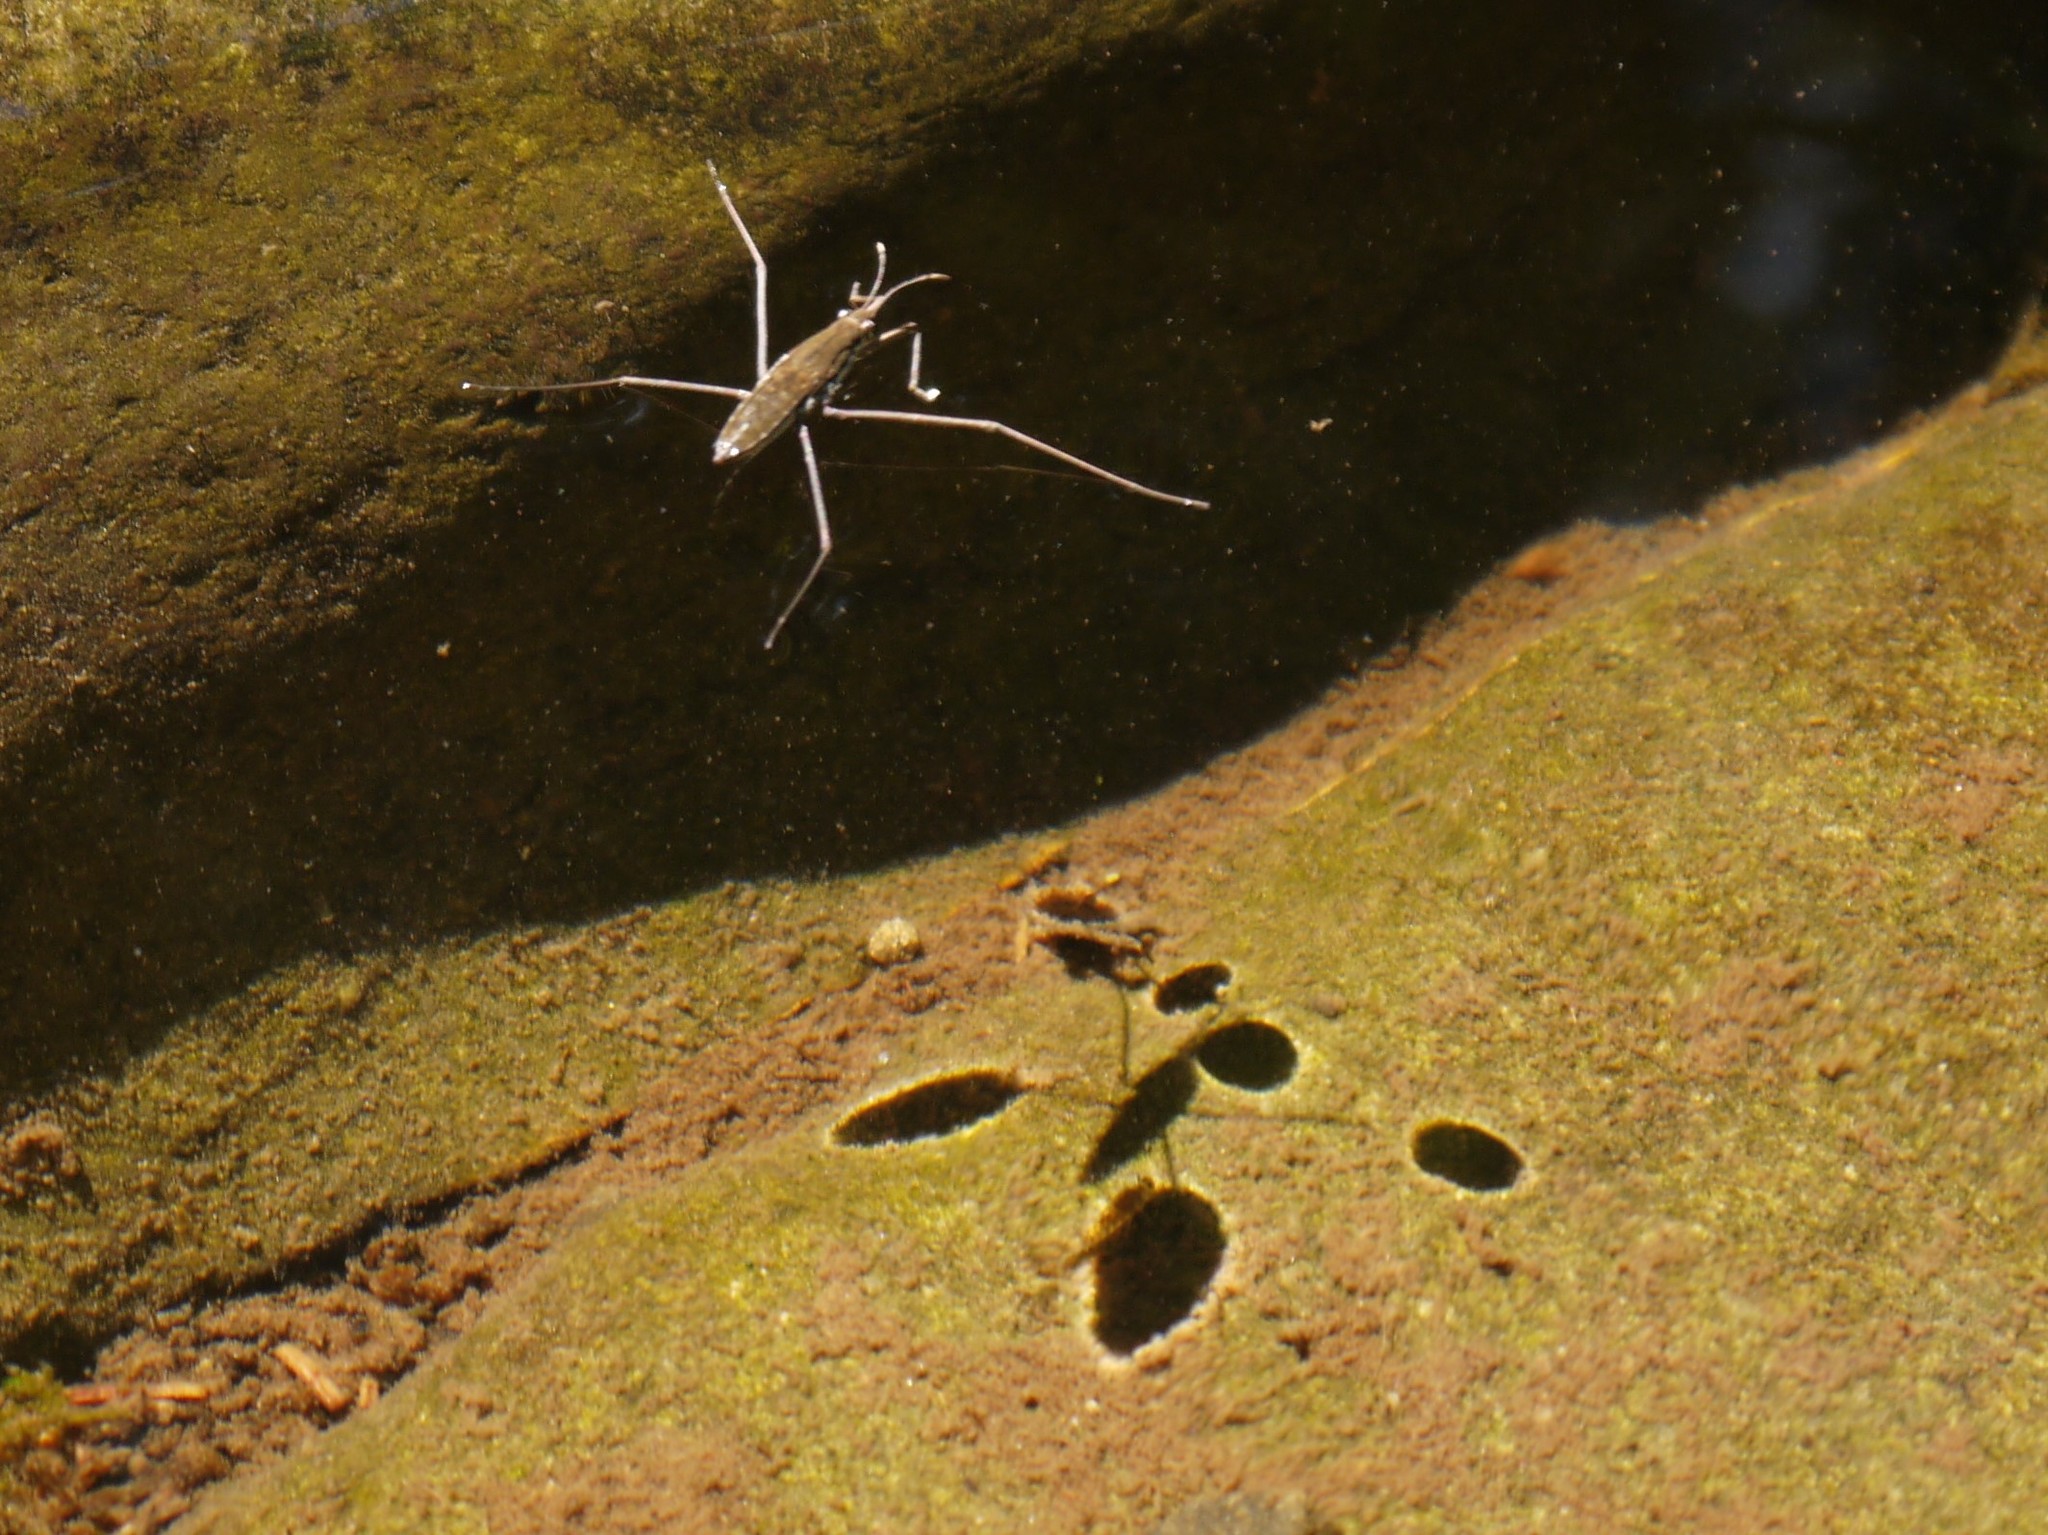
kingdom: Animalia
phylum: Arthropoda
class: Insecta
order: Hemiptera
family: Gerridae
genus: Aquarius
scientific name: Aquarius remigis
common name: Common water strider
